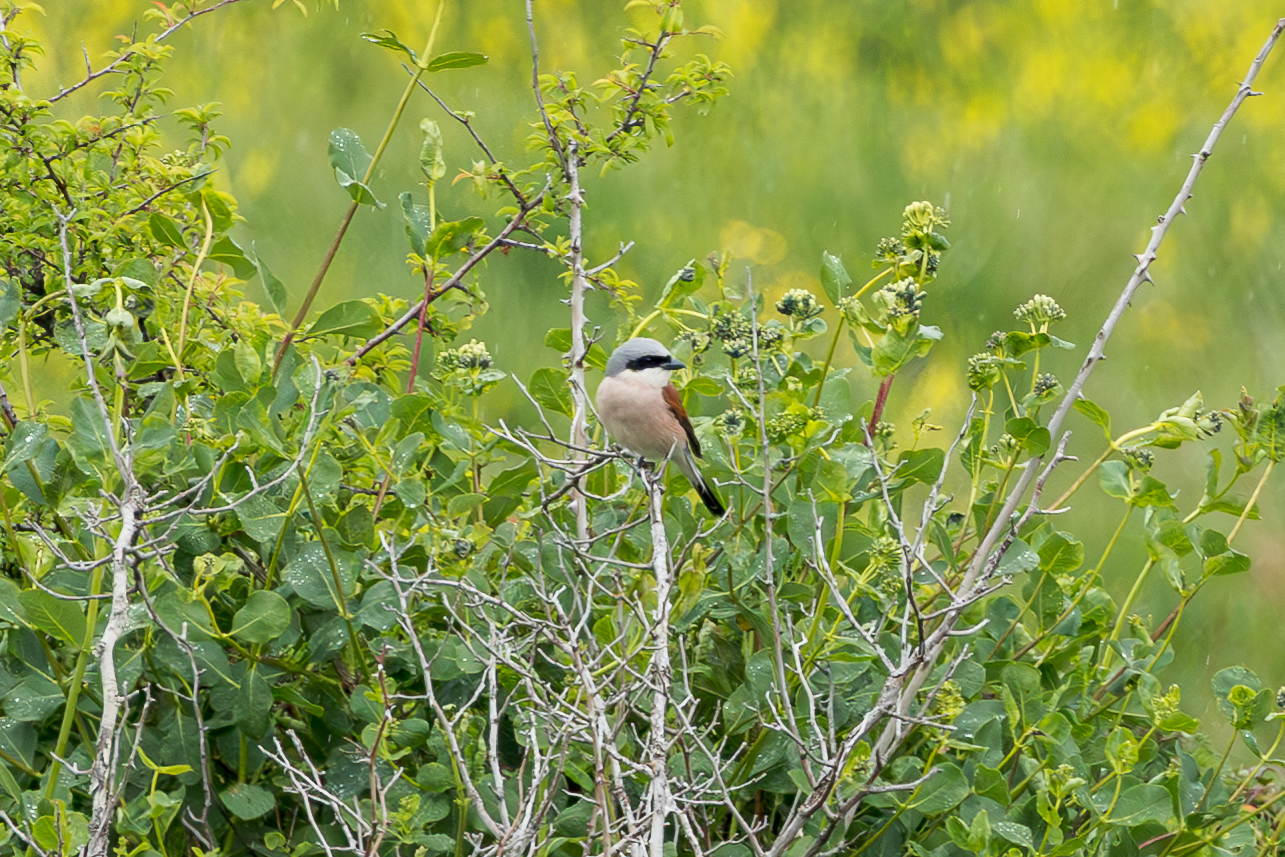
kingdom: Animalia
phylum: Chordata
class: Aves
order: Passeriformes
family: Laniidae
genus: Lanius
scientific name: Lanius collurio
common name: Red-backed shrike
